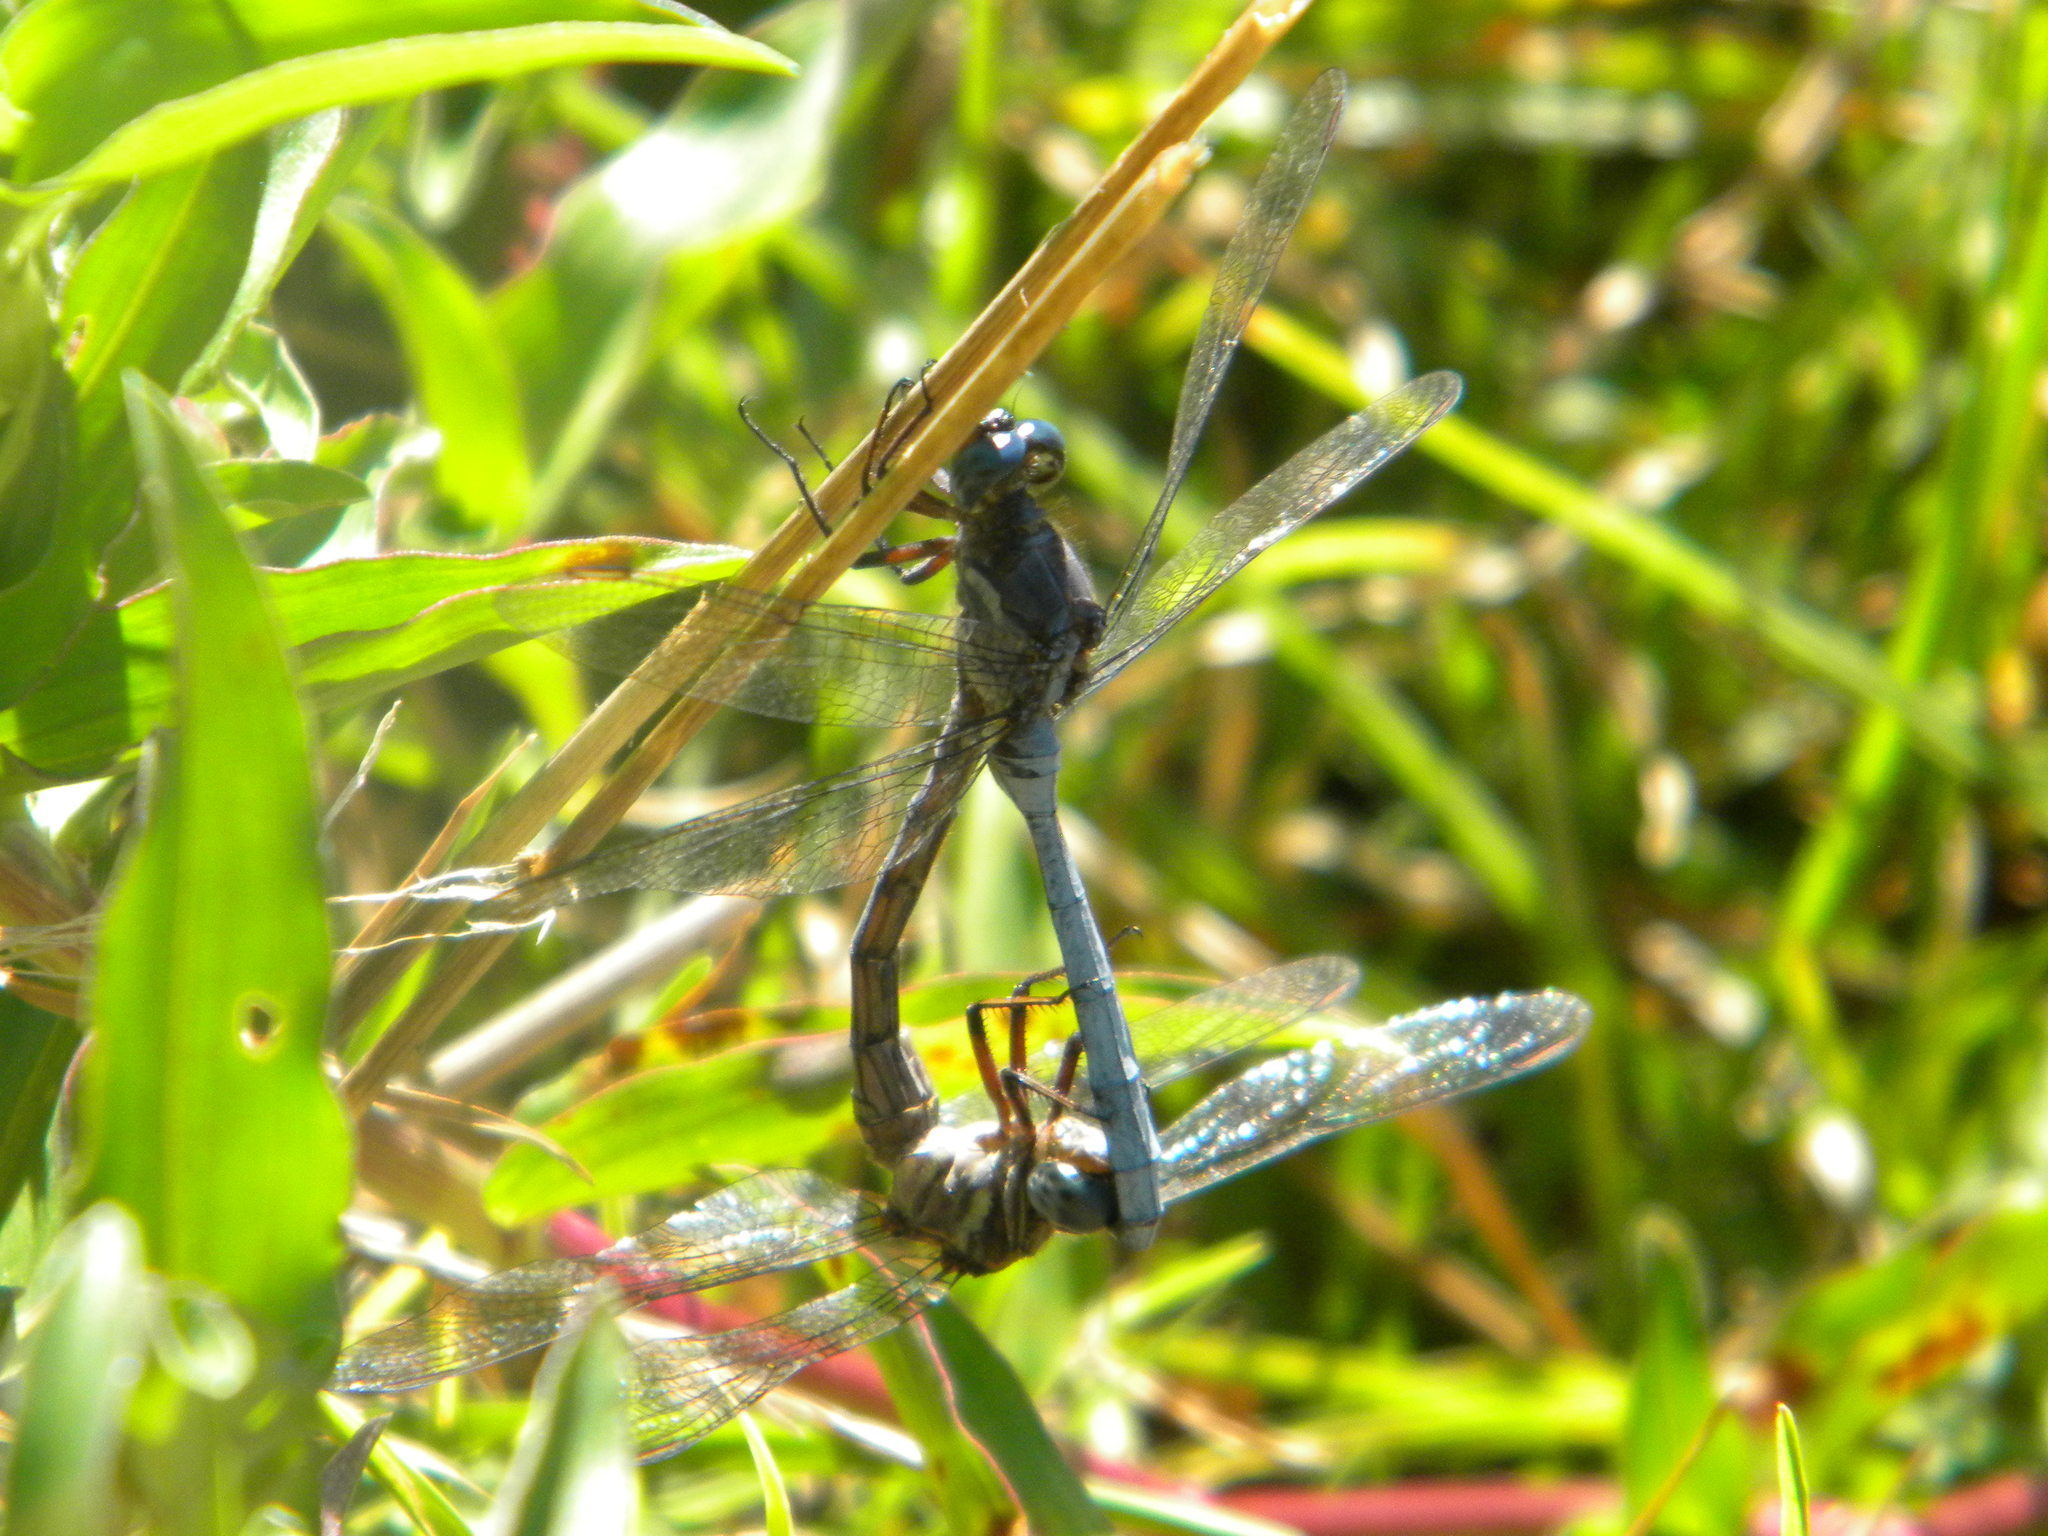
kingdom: Animalia
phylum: Arthropoda
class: Insecta
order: Odonata
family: Libellulidae
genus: Orthetrum
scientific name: Orthetrum julia
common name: Julia skimmer
